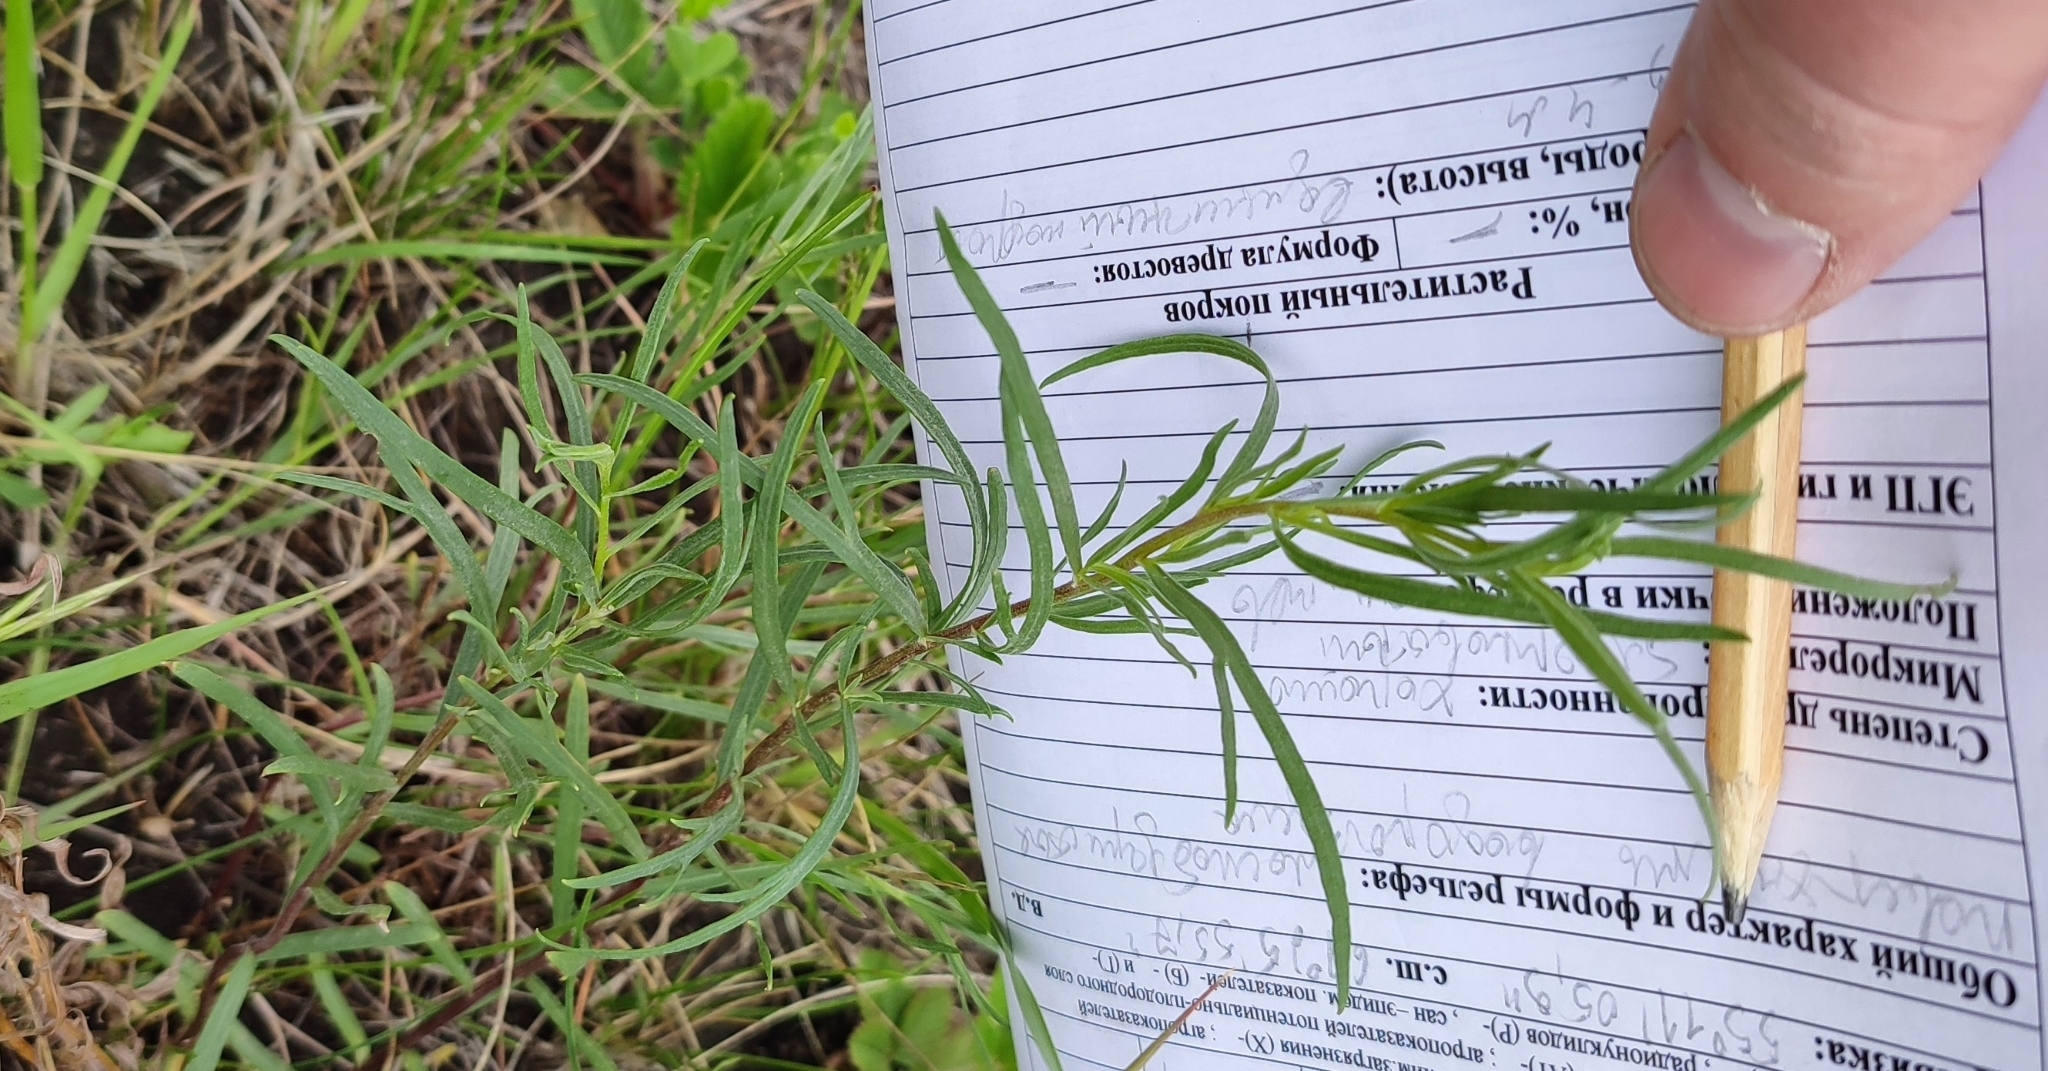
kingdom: Plantae
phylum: Tracheophyta
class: Magnoliopsida
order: Asterales
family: Asteraceae
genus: Artemisia
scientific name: Artemisia dracunculus
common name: Tarragon
